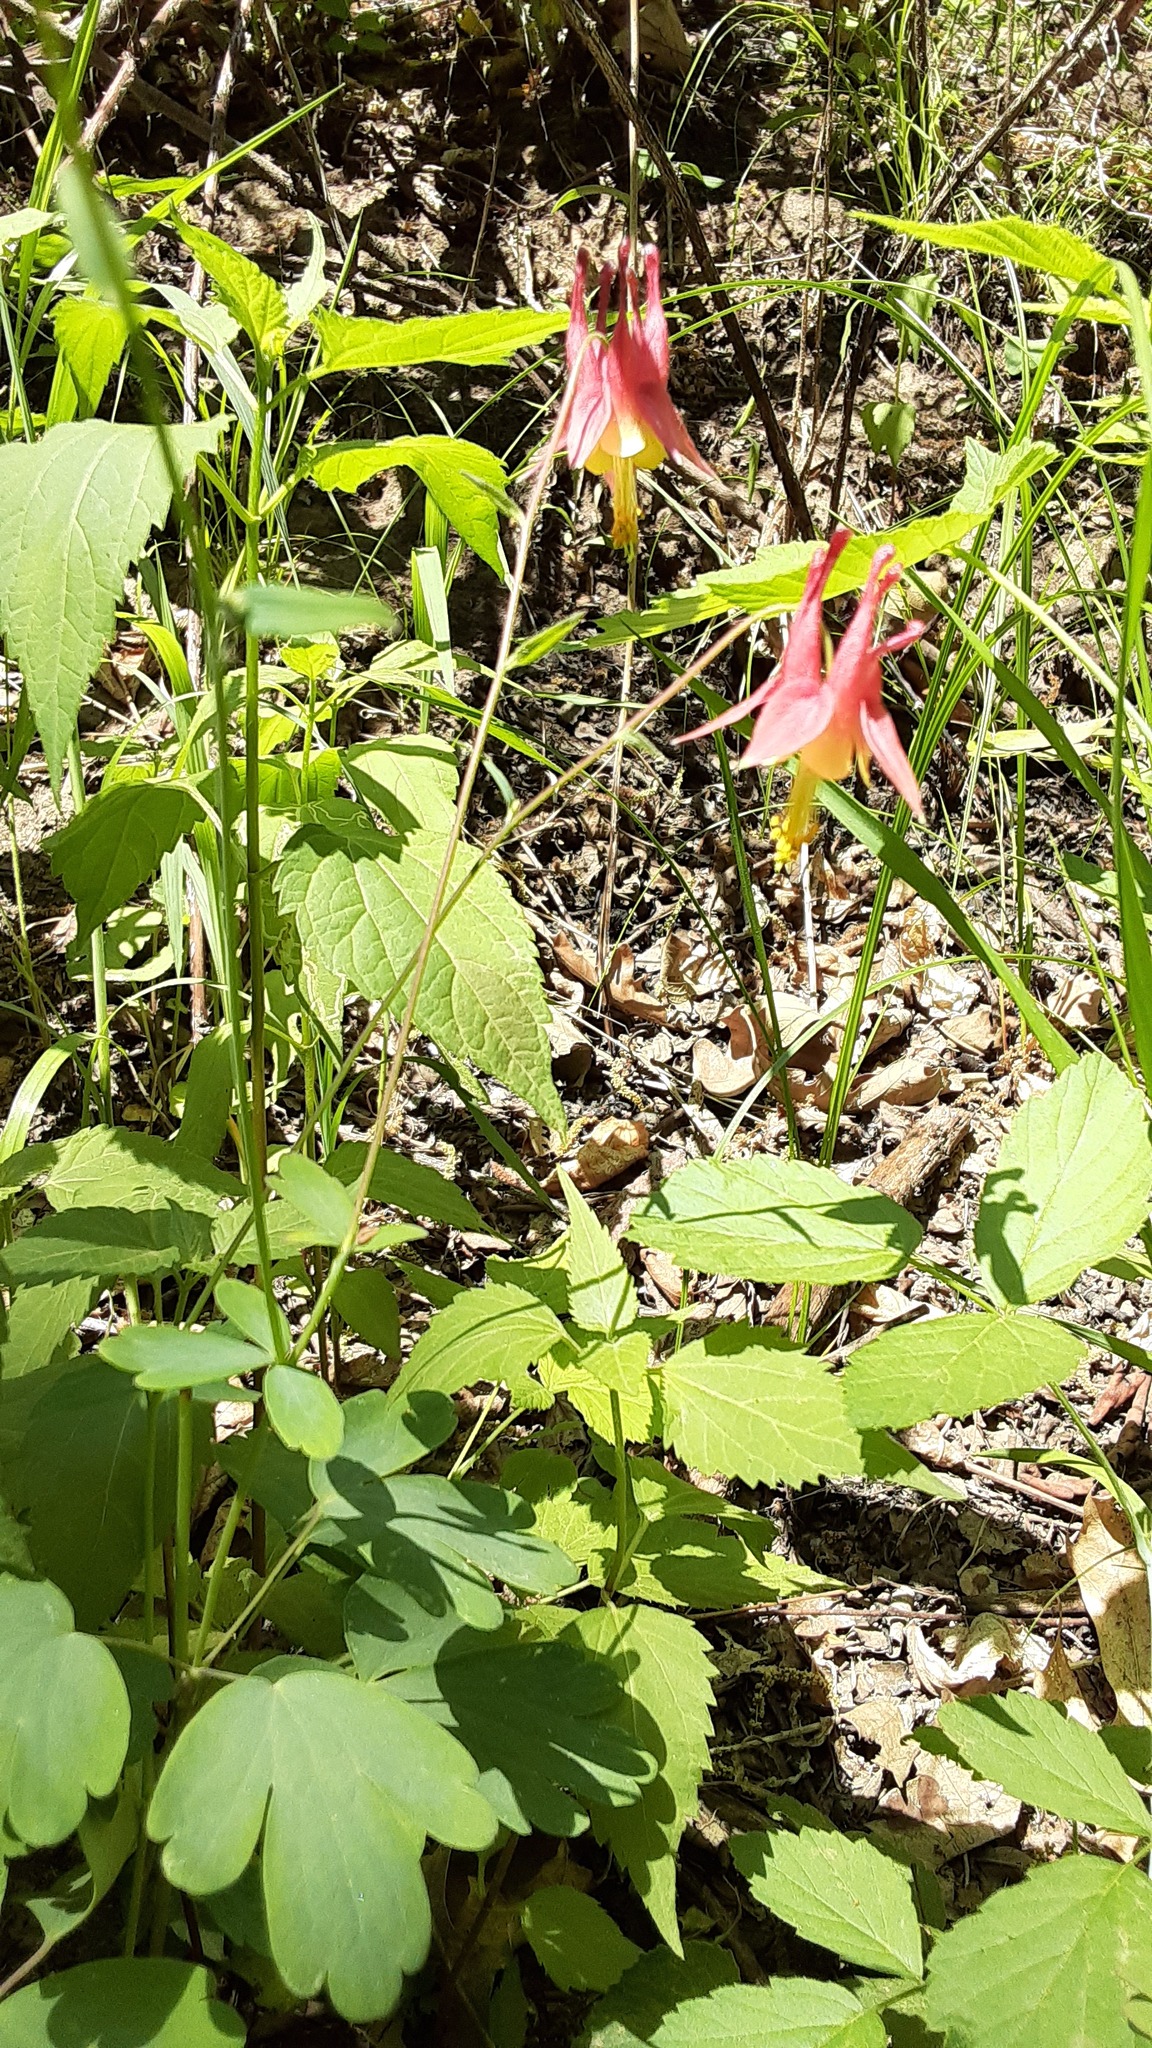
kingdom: Plantae
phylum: Tracheophyta
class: Magnoliopsida
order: Ranunculales
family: Ranunculaceae
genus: Aquilegia
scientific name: Aquilegia canadensis
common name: American columbine
